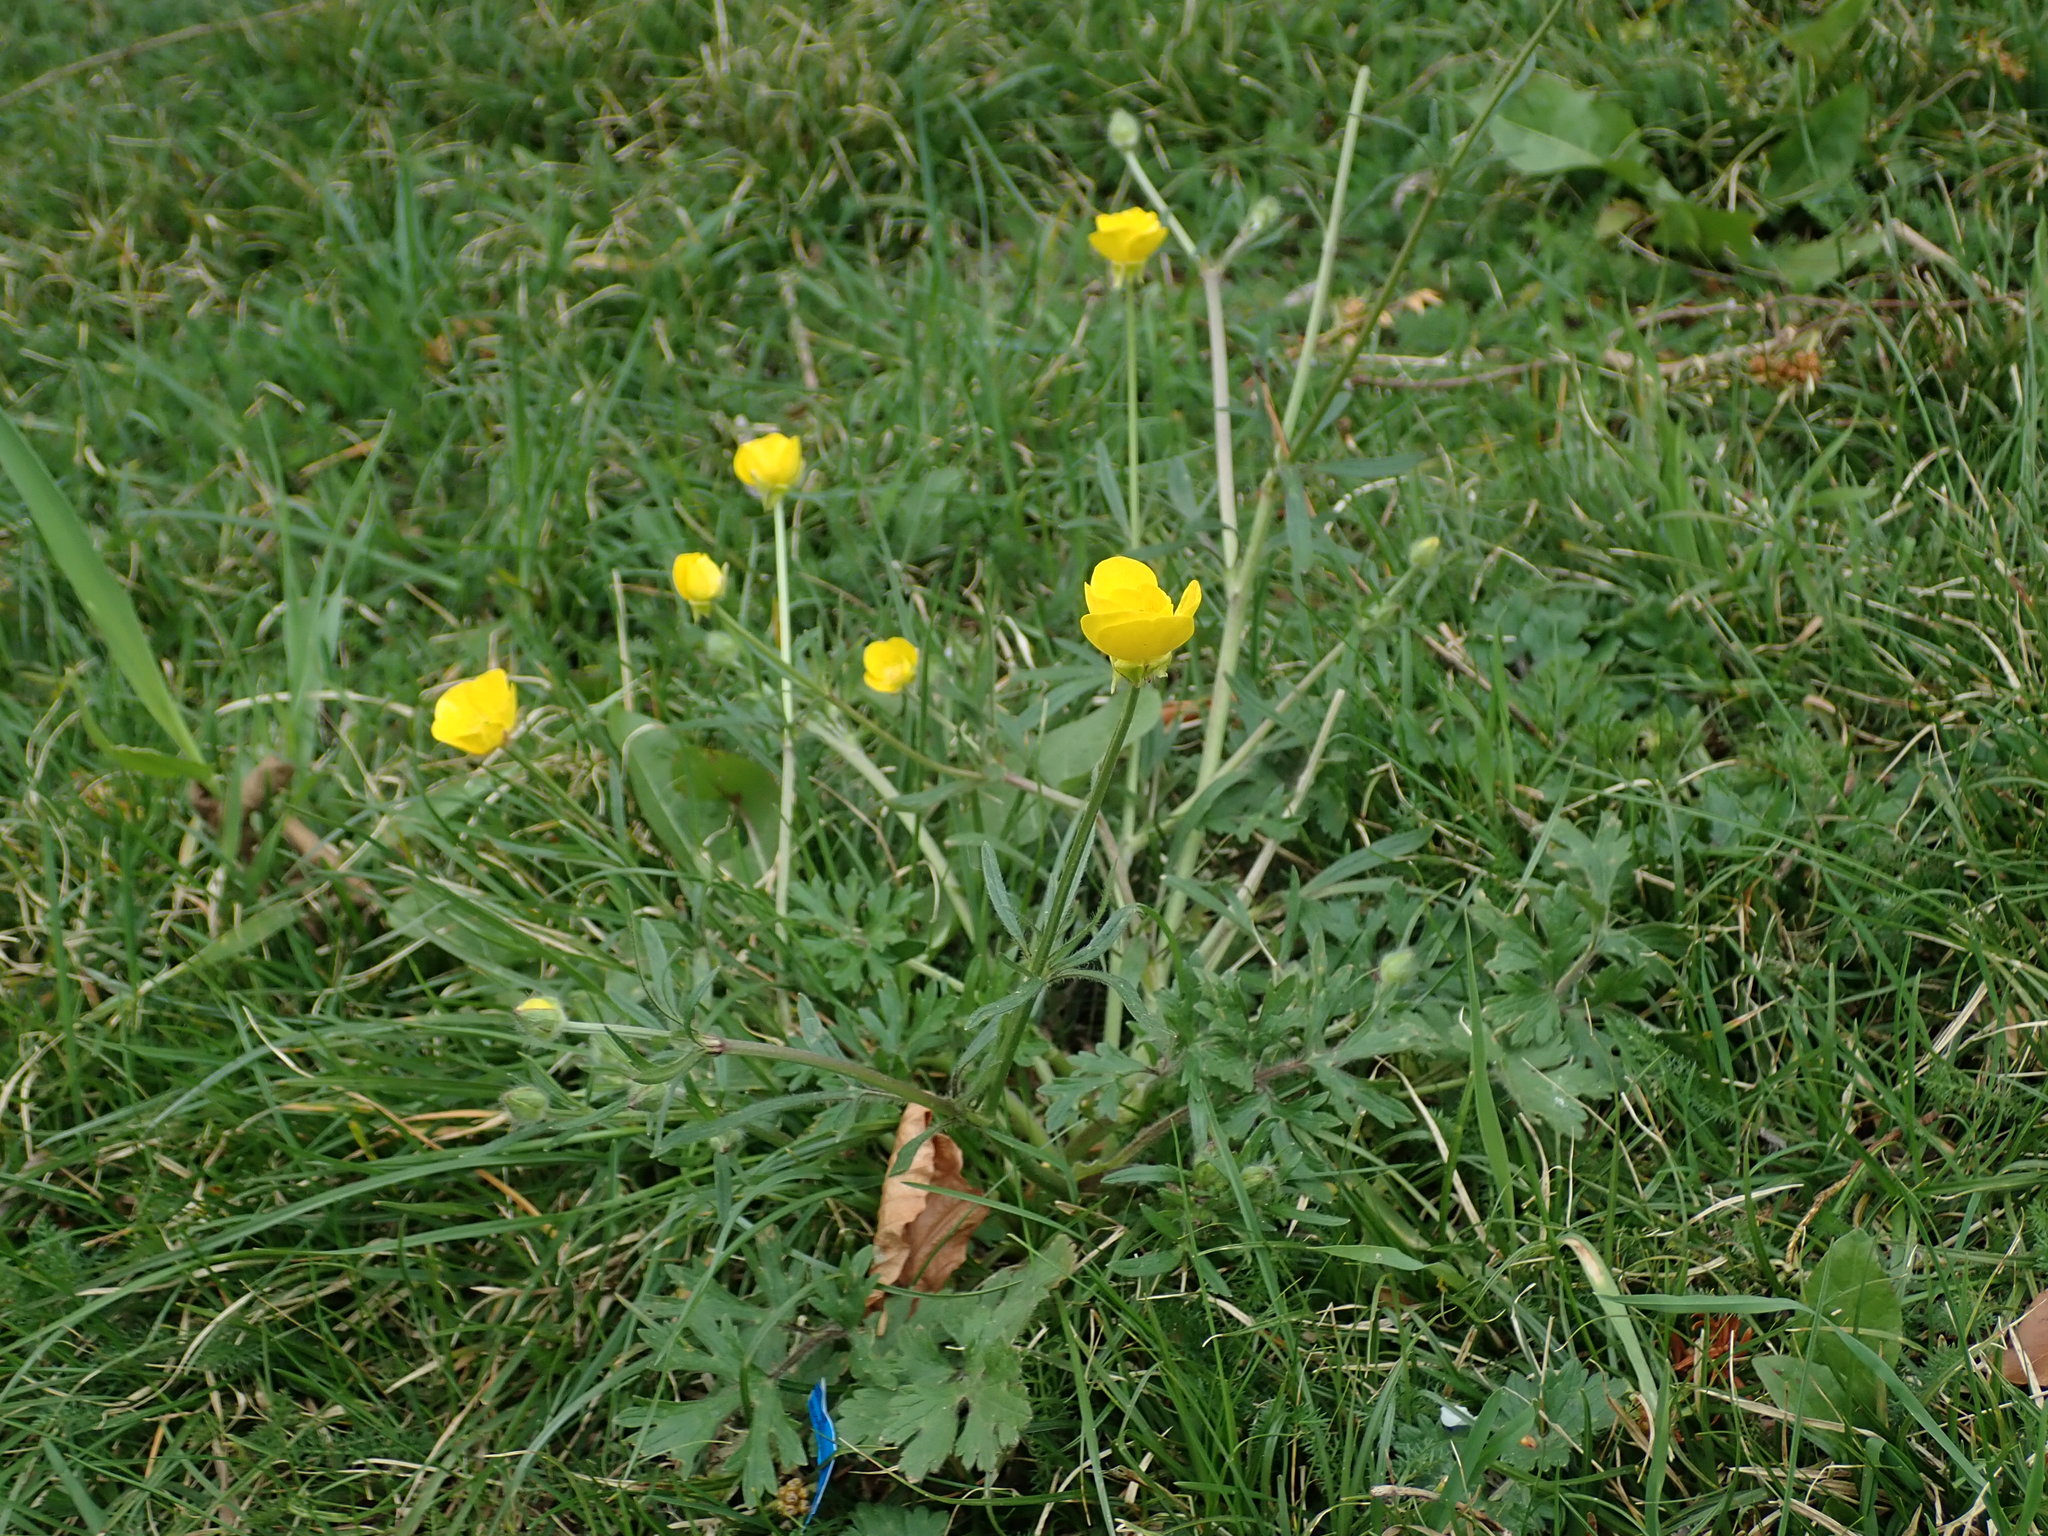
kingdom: Plantae
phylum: Tracheophyta
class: Magnoliopsida
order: Ranunculales
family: Ranunculaceae
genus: Ranunculus
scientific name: Ranunculus bulbosus
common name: Bulbous buttercup
